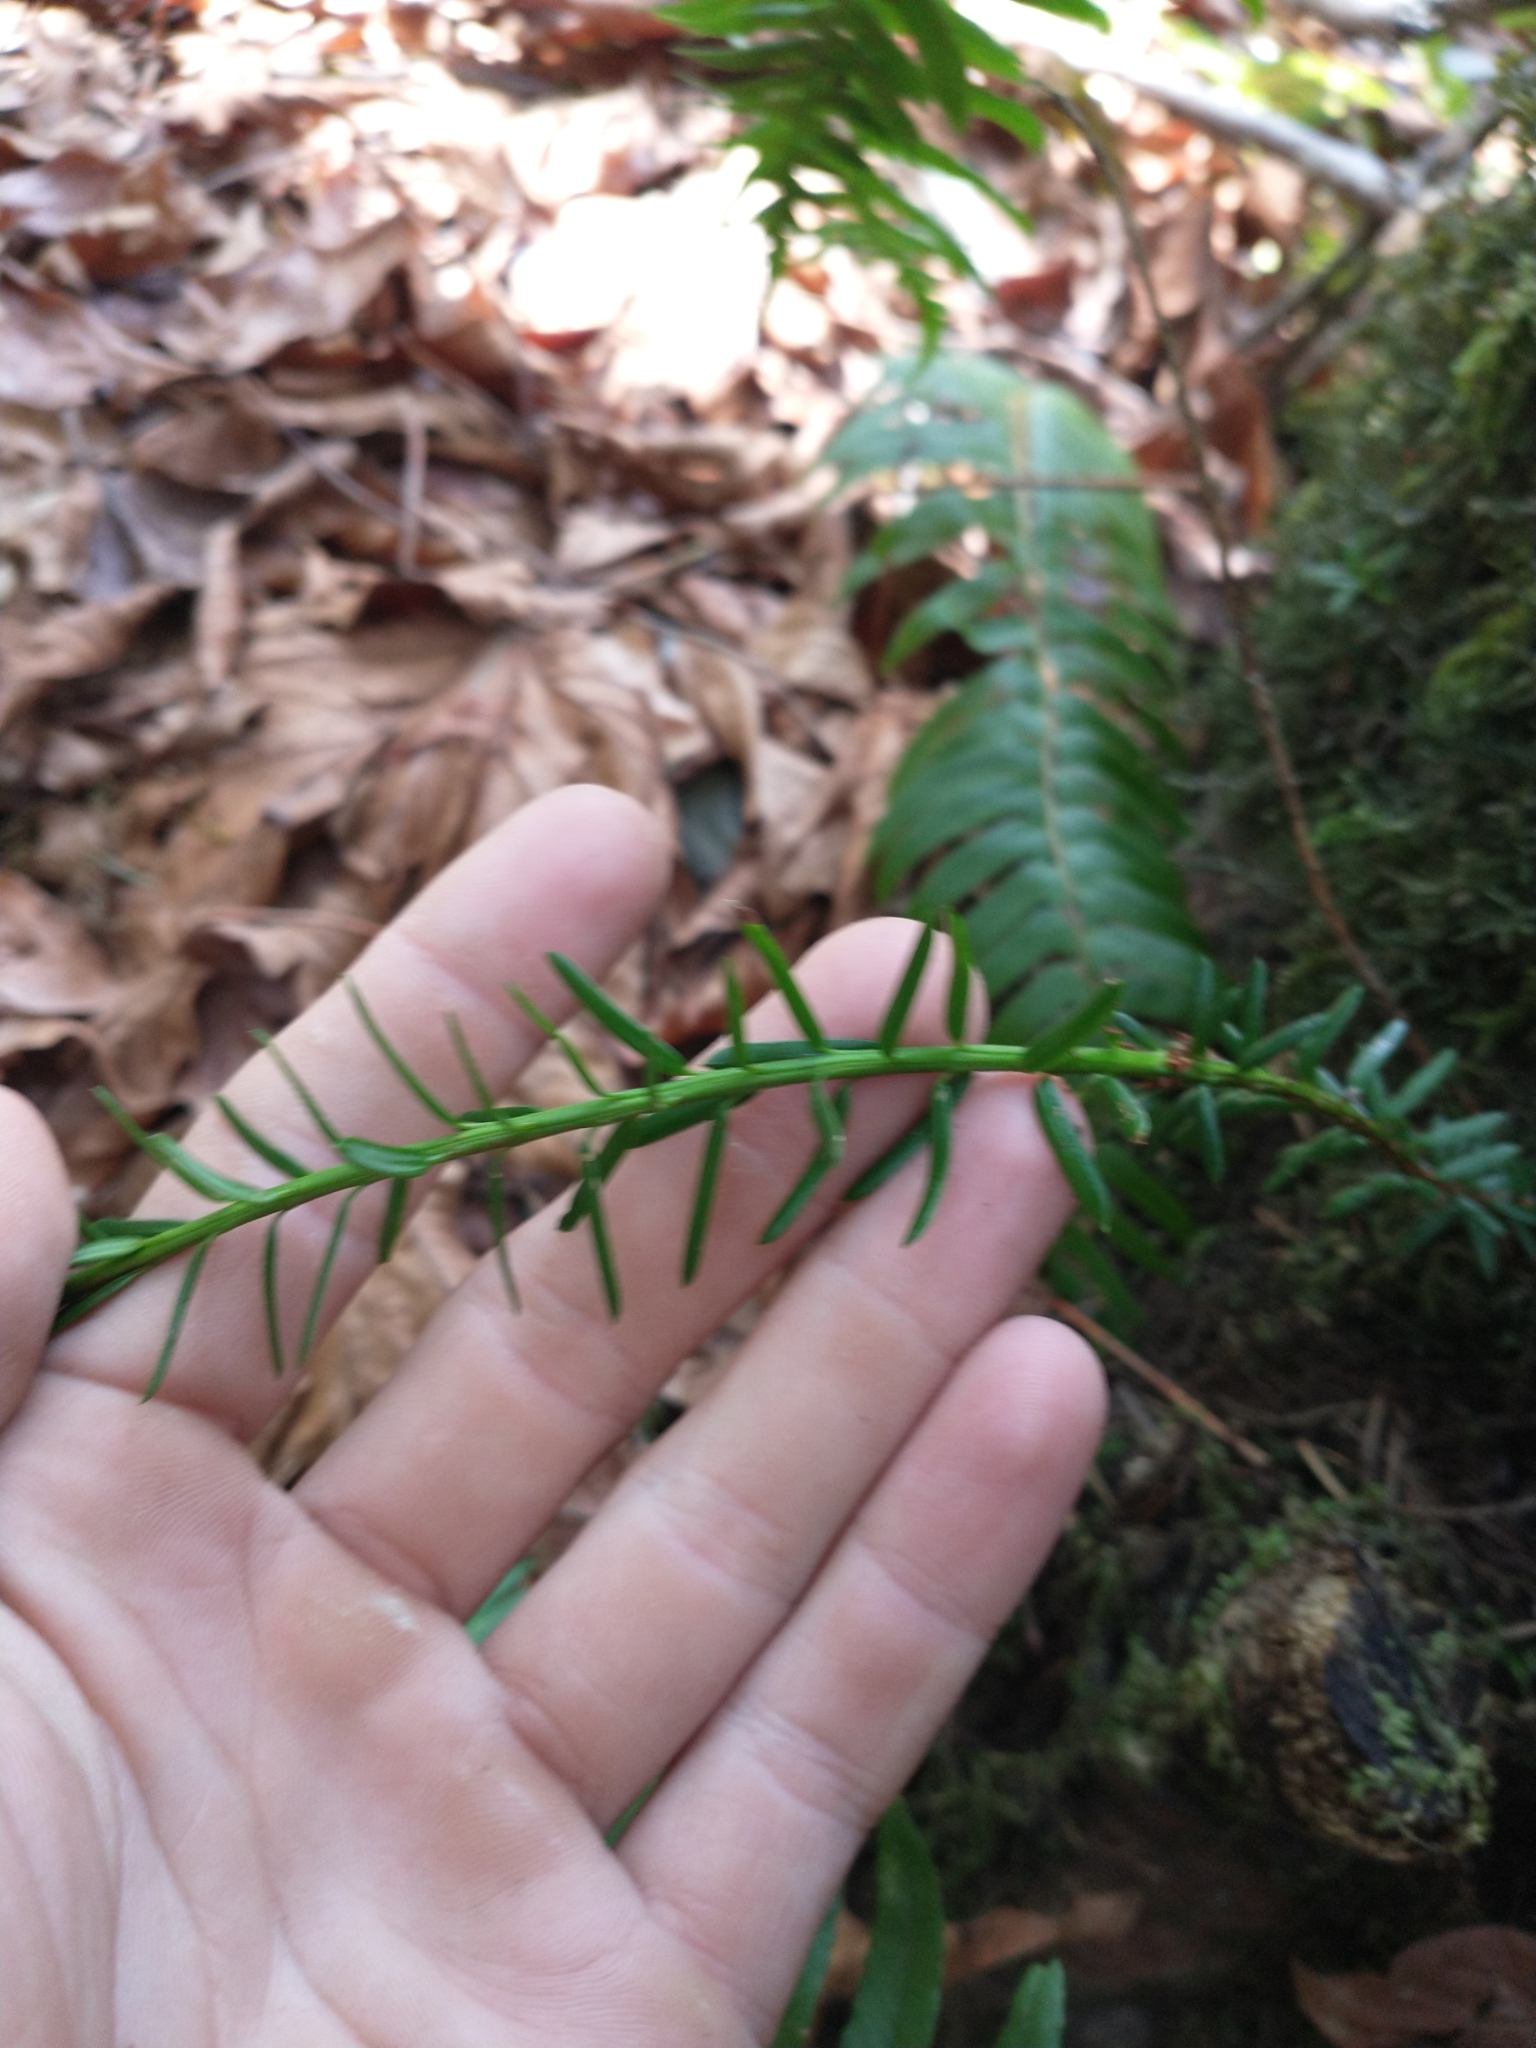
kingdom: Plantae
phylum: Tracheophyta
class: Pinopsida
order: Pinales
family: Taxaceae
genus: Taxus
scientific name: Taxus brevifolia
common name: Pacific yew
